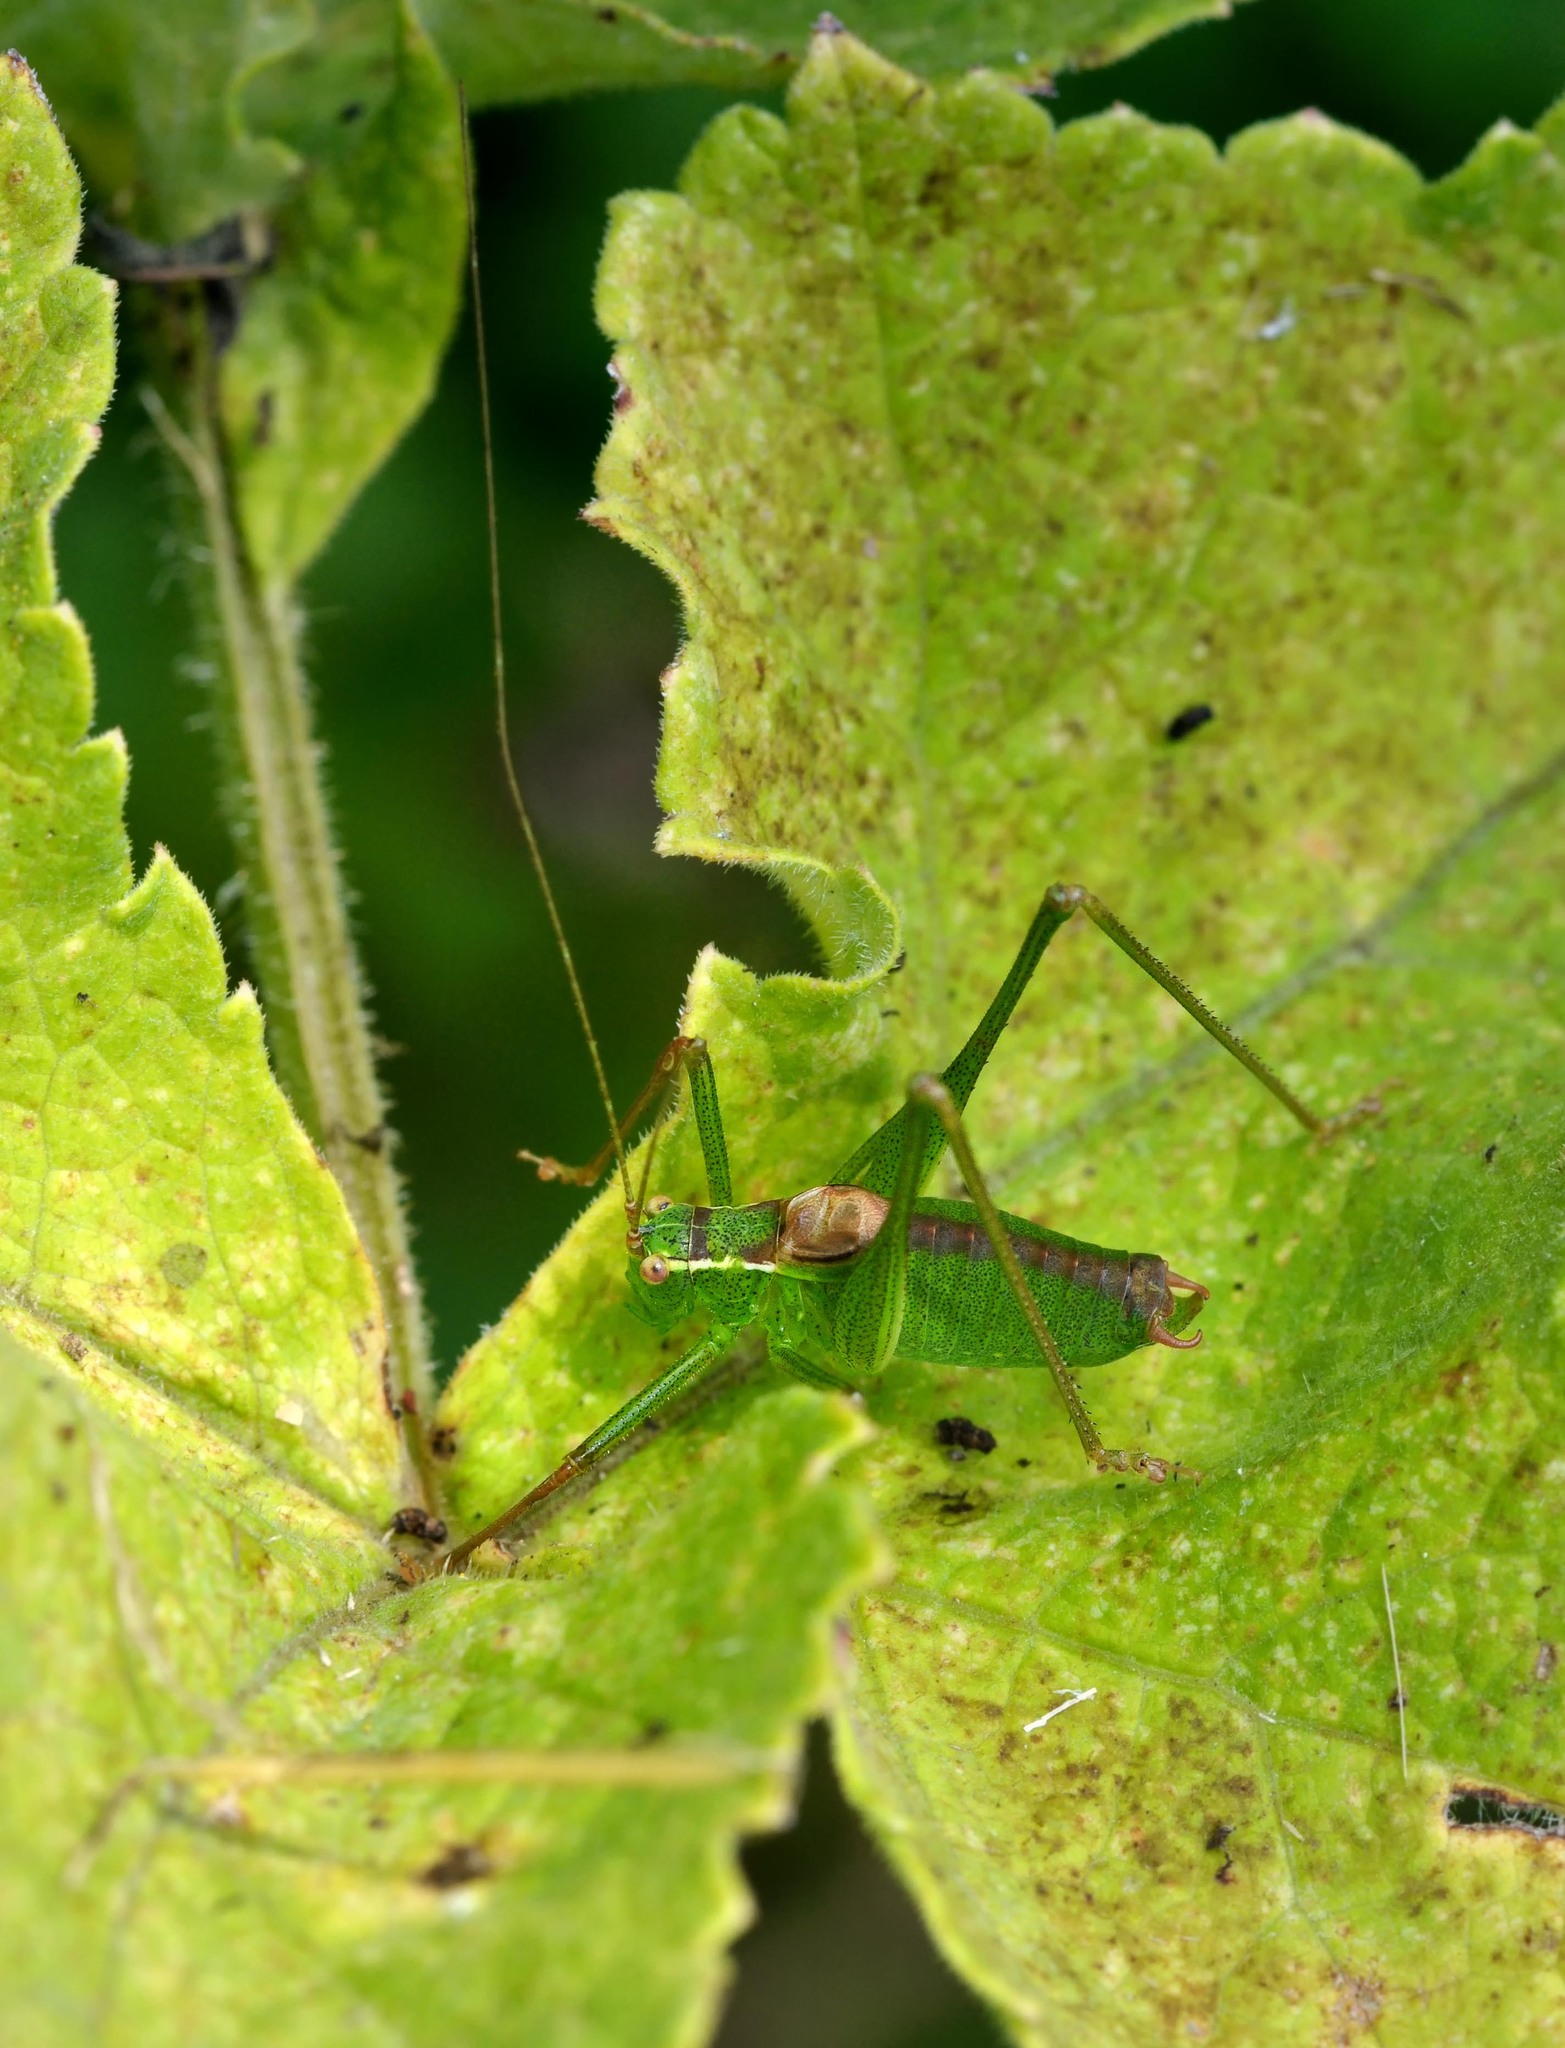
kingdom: Animalia
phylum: Arthropoda
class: Insecta
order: Orthoptera
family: Tettigoniidae
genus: Leptophyes
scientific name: Leptophyes punctatissima
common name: Speckled bush-cricket
